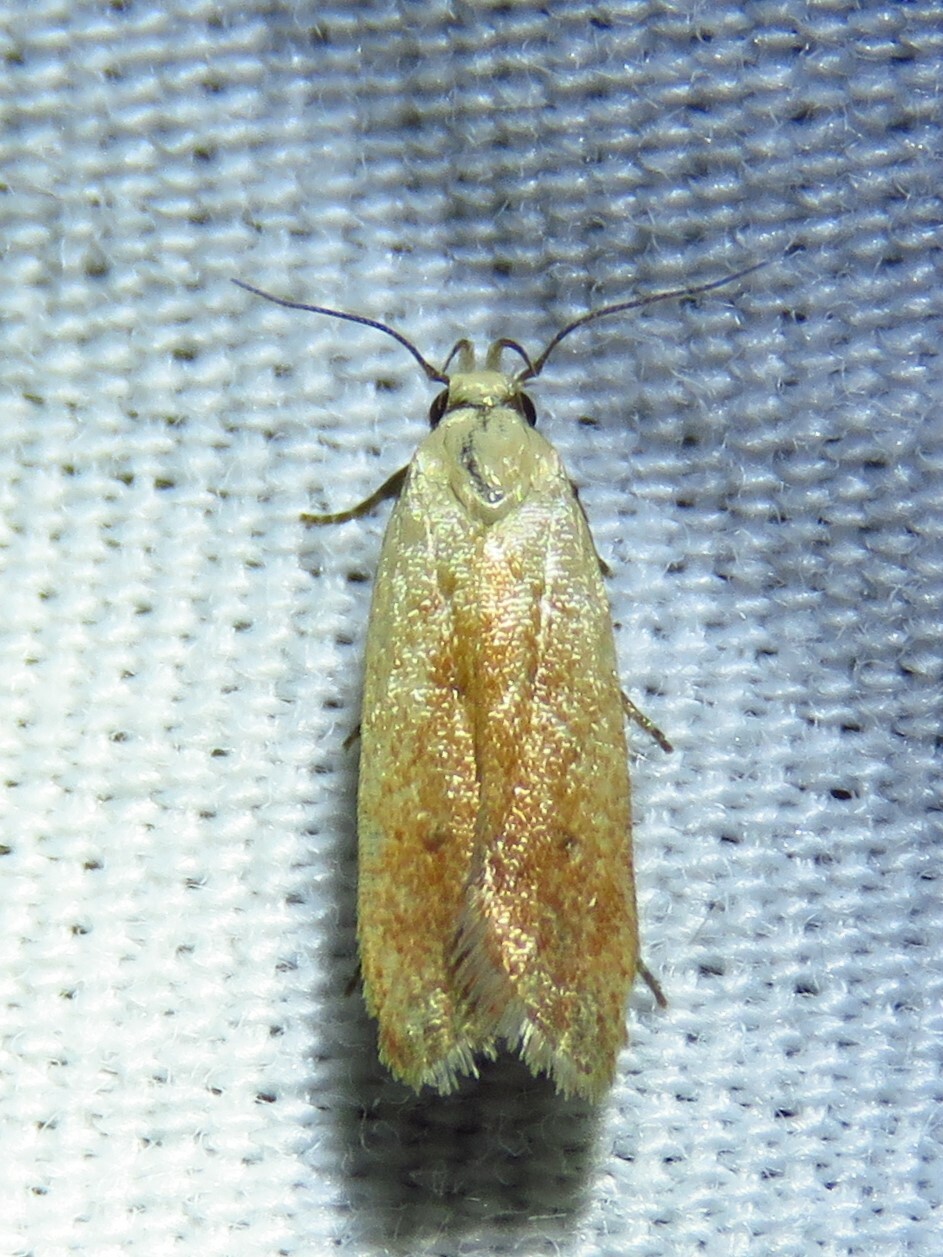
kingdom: Animalia
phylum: Arthropoda
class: Insecta
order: Lepidoptera
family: Gelechiidae
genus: Anacampsis
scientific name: Anacampsis fullonella
